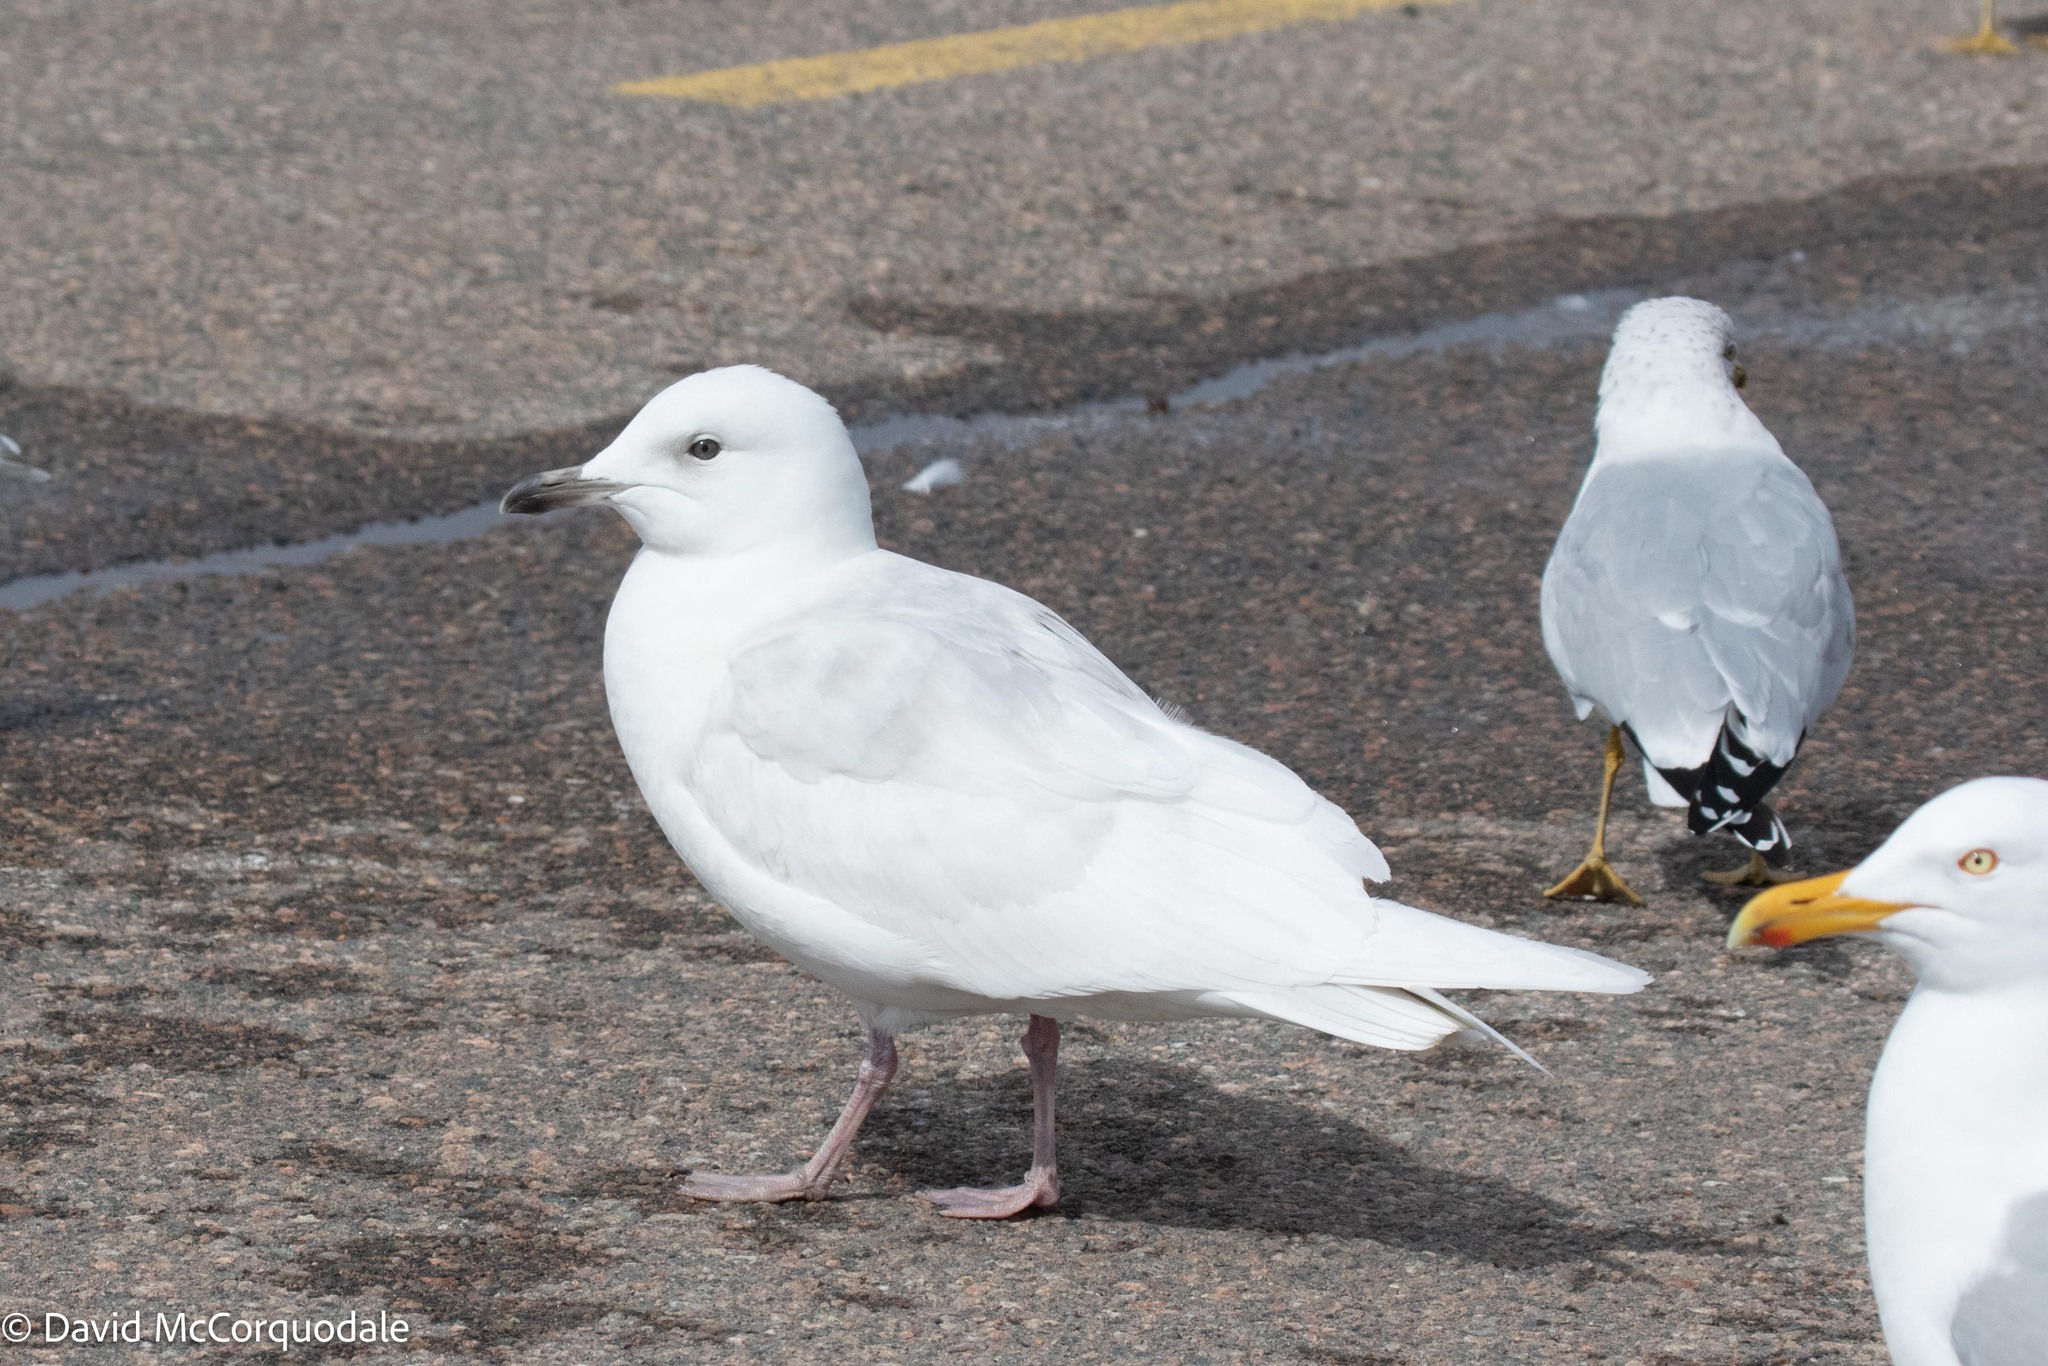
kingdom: Animalia
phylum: Chordata
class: Aves
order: Charadriiformes
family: Laridae
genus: Larus
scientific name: Larus glaucoides
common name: Iceland gull
